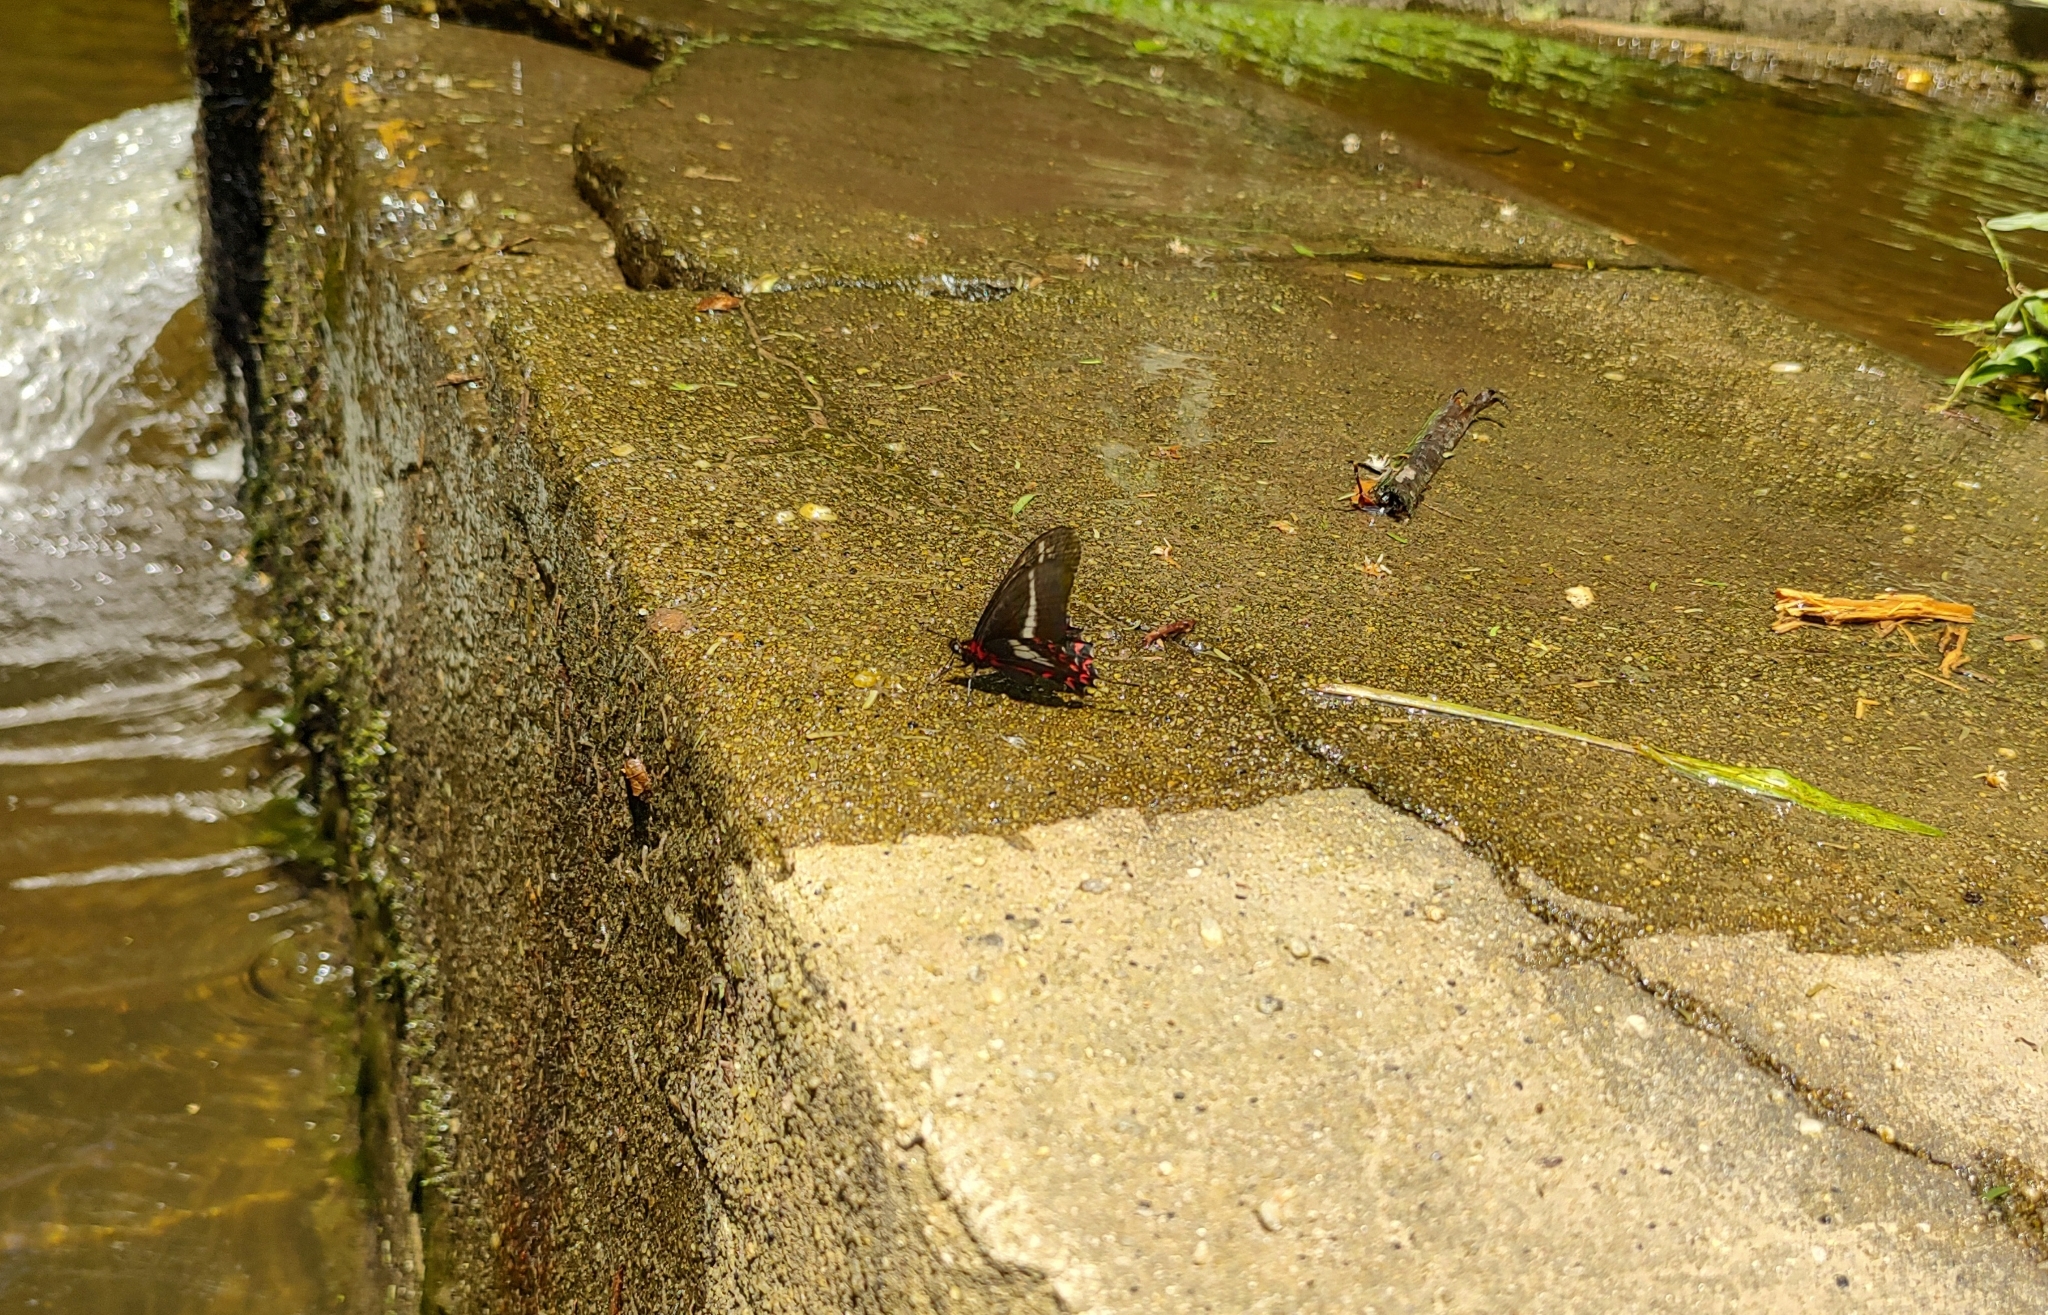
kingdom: Animalia
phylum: Arthropoda
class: Insecta
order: Lepidoptera
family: Papilionidae
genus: Mimoides
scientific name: Mimoides lysithous
